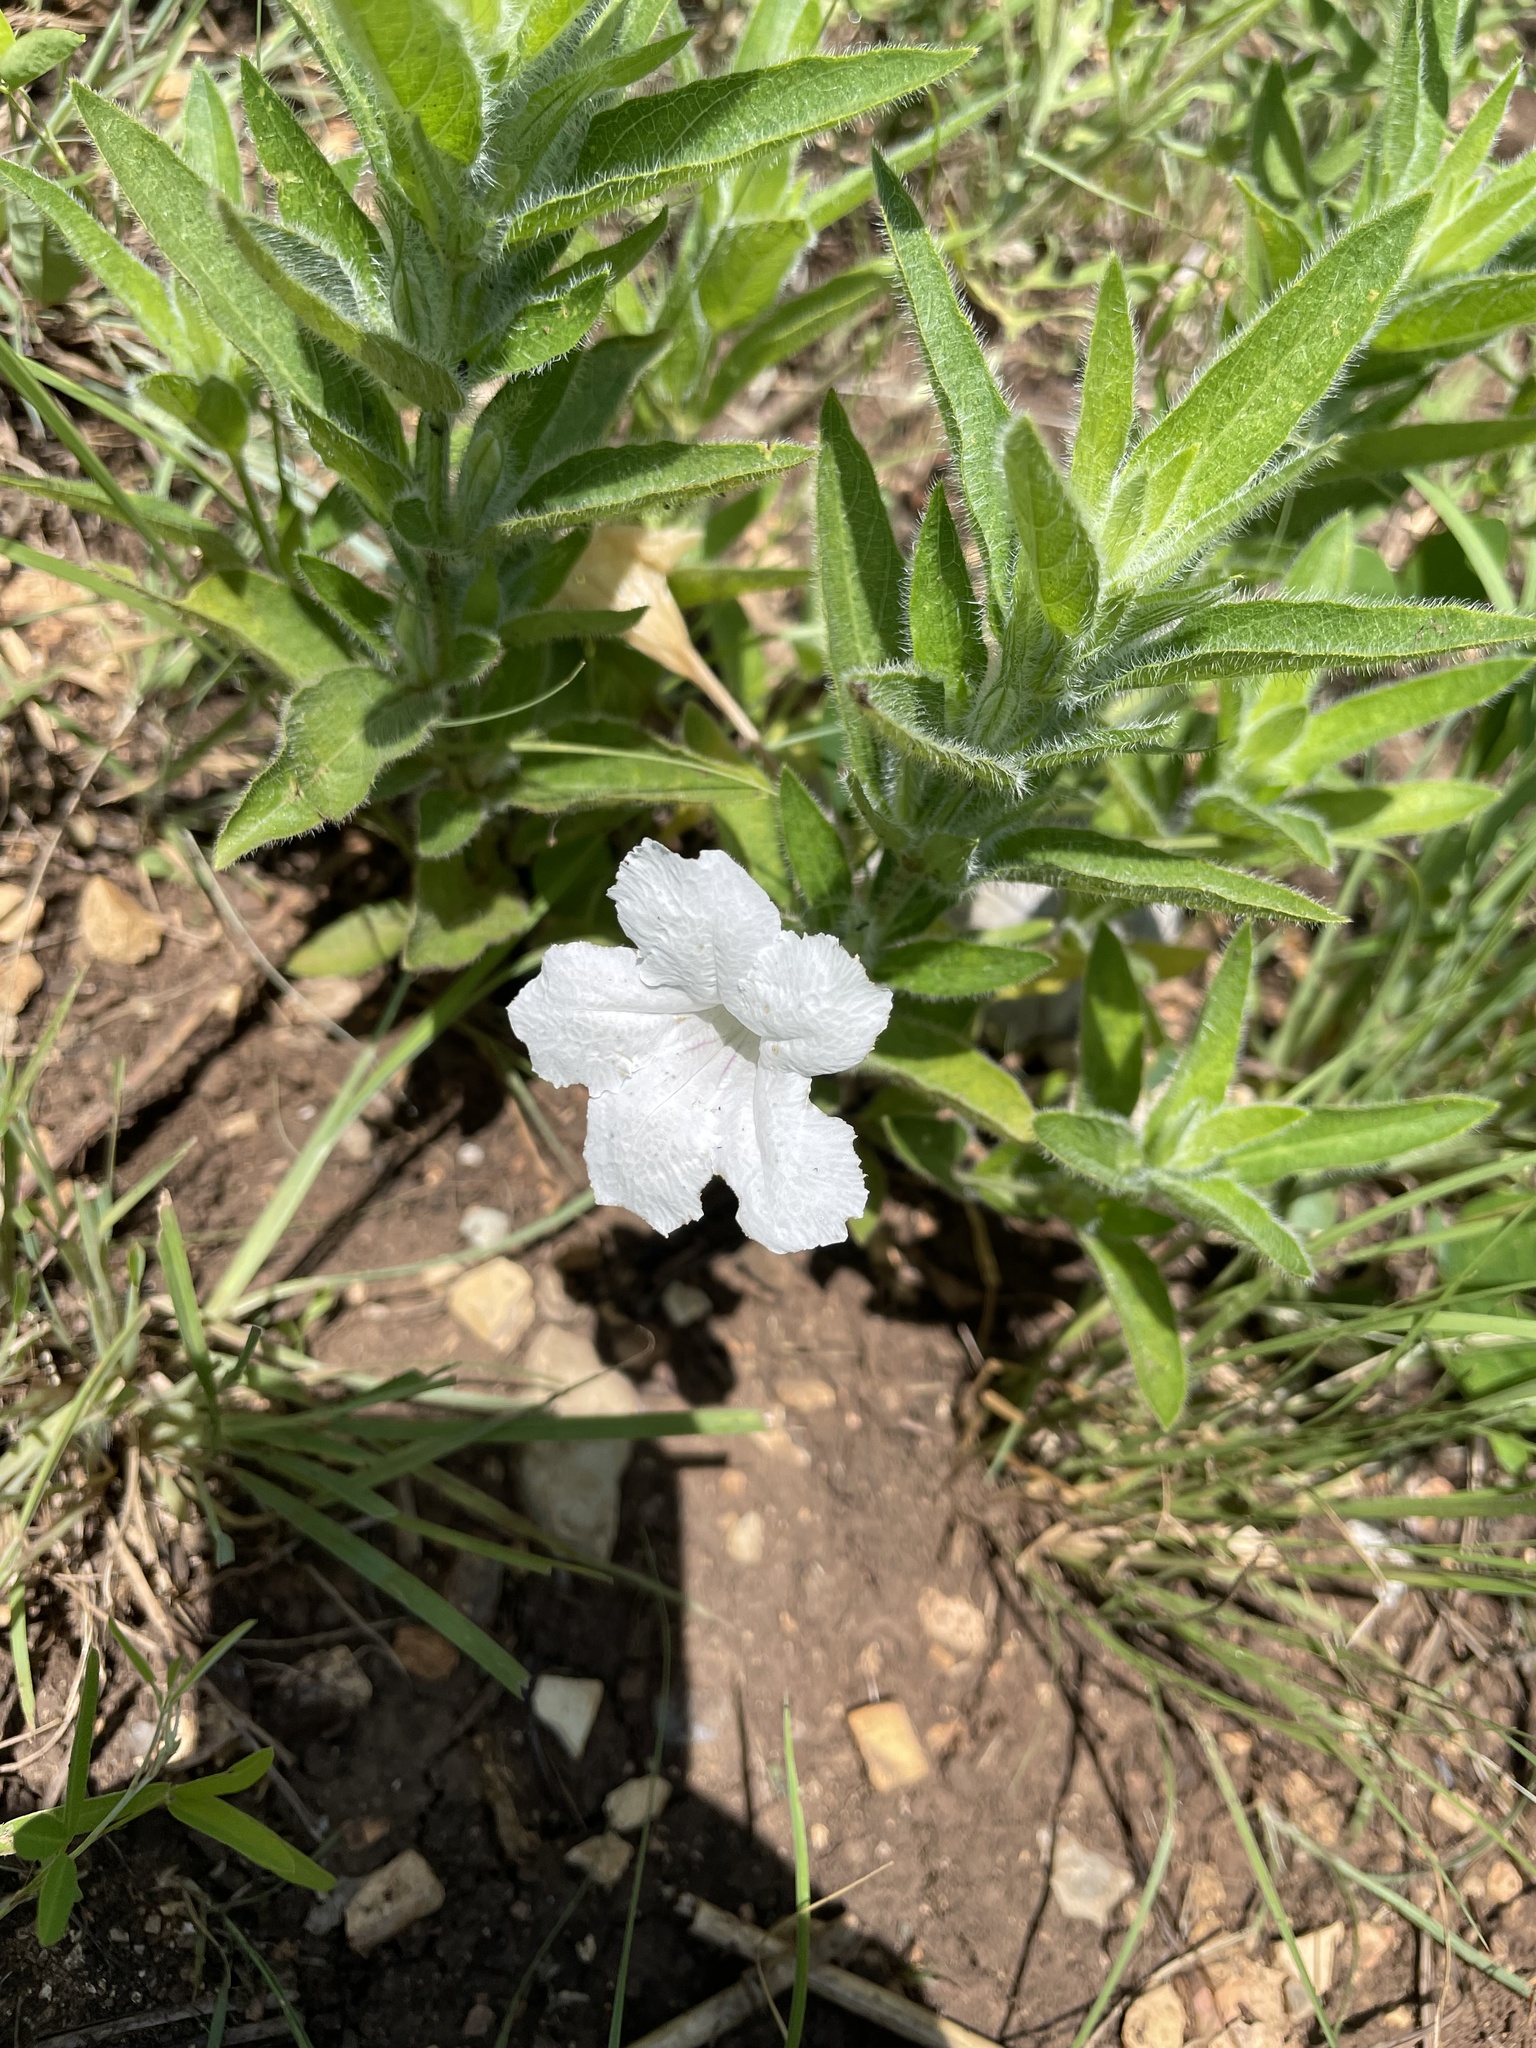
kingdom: Plantae
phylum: Tracheophyta
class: Magnoliopsida
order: Lamiales
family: Acanthaceae
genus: Ruellia
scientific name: Ruellia humilis
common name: Fringe-leaf ruellia
